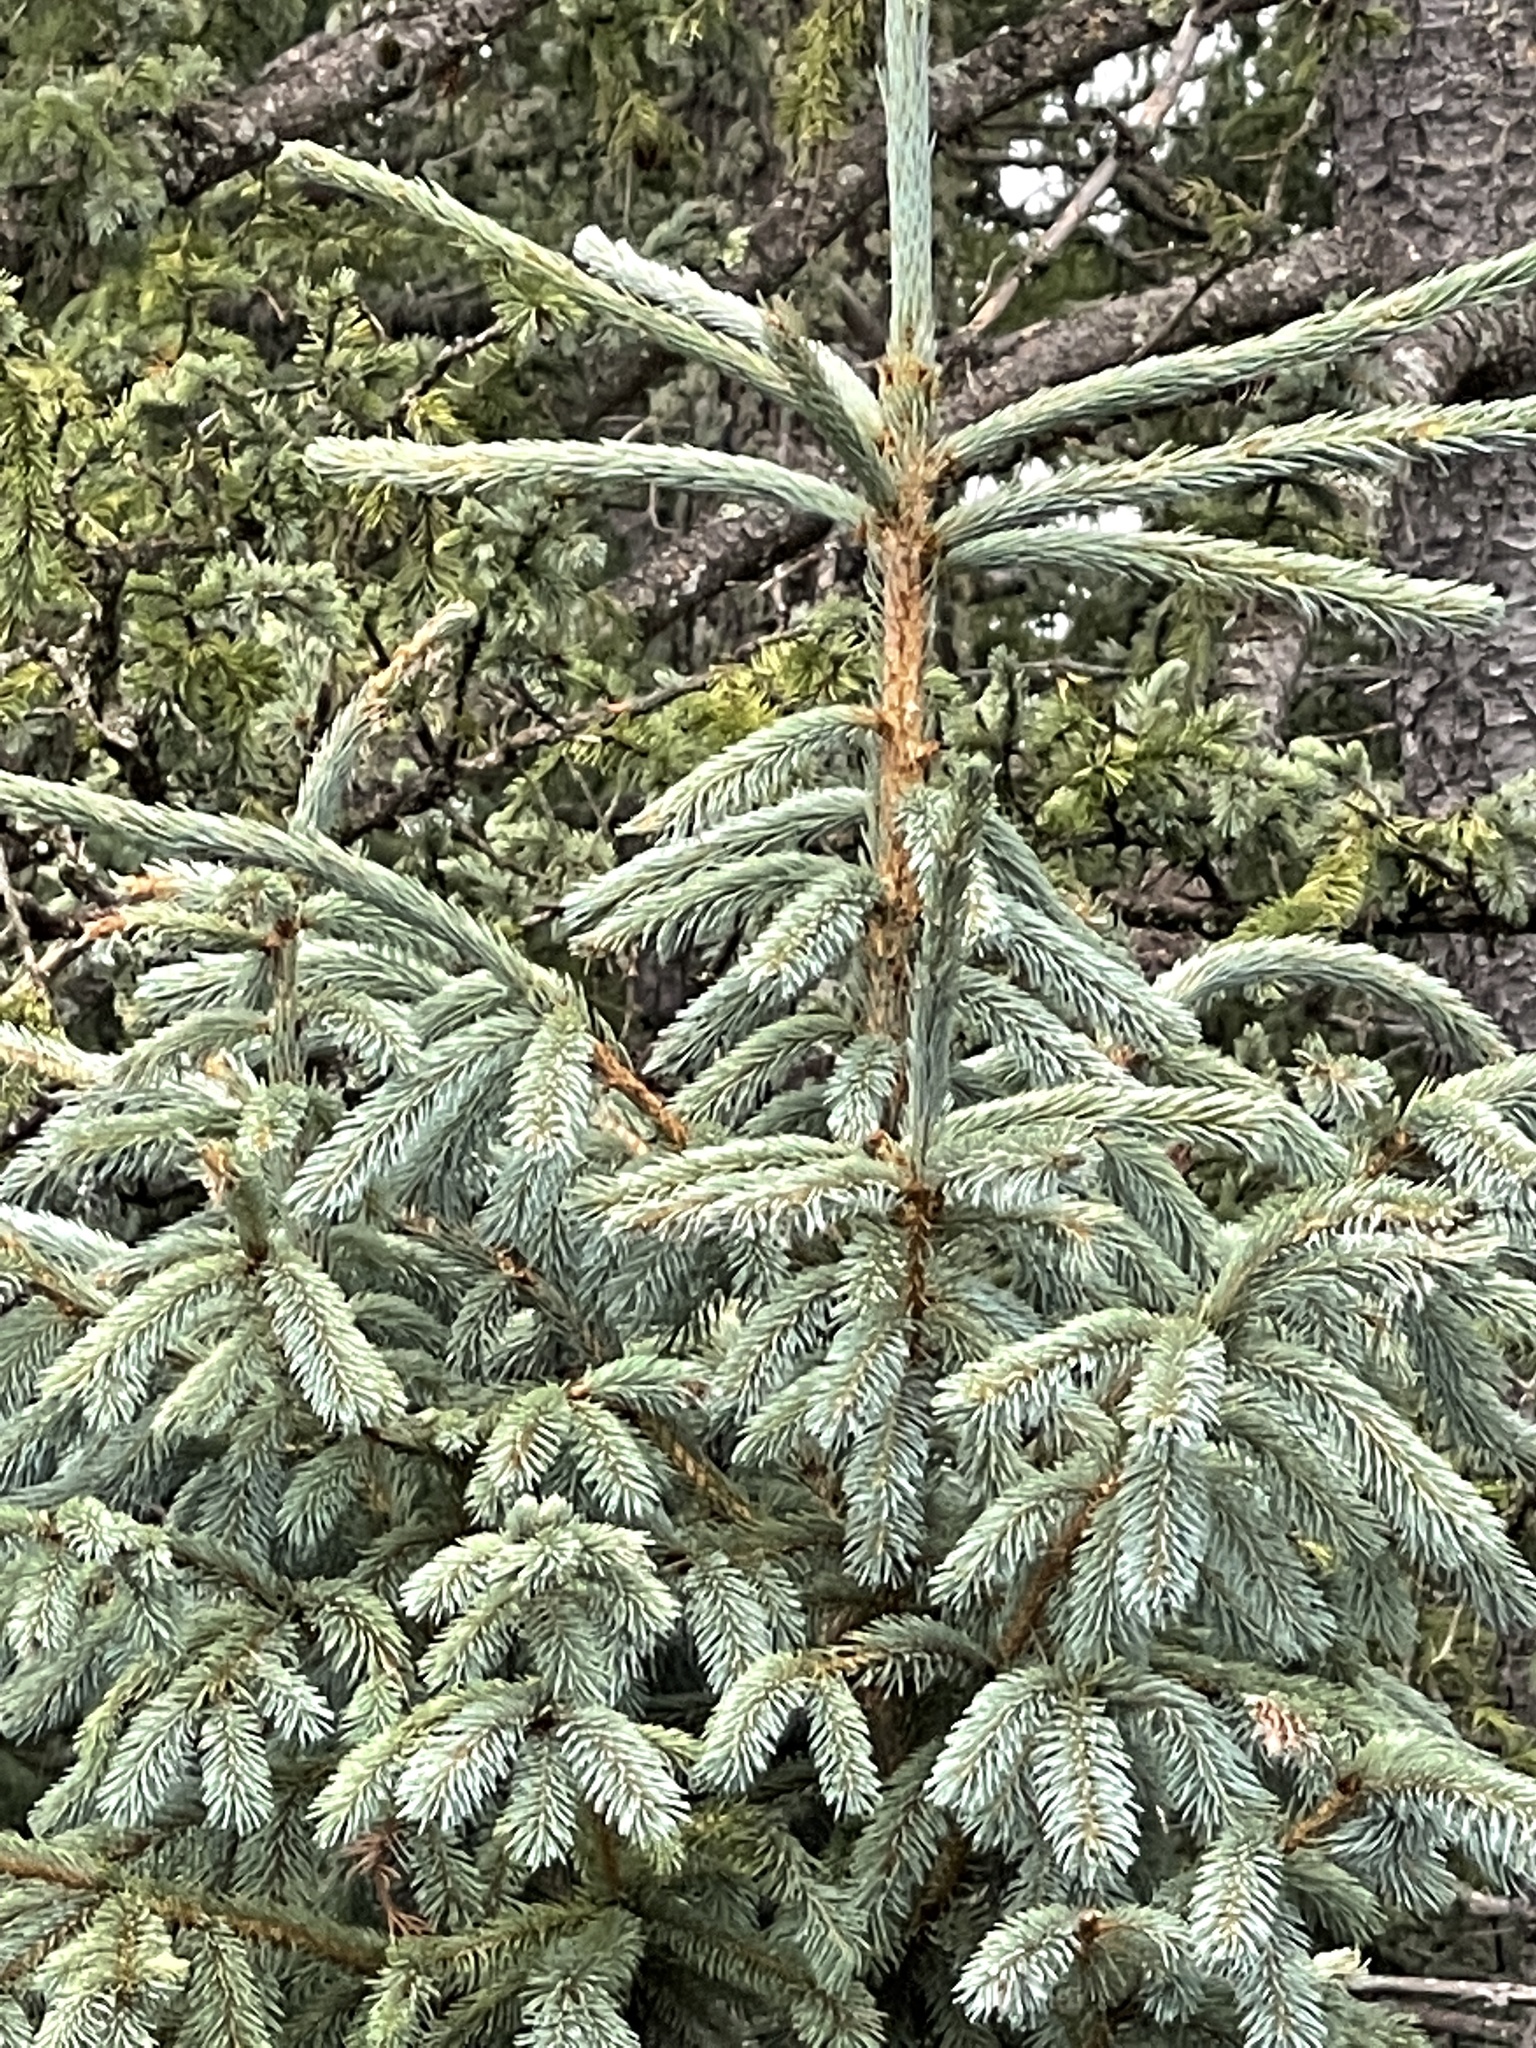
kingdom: Plantae
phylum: Tracheophyta
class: Pinopsida
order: Pinales
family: Pinaceae
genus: Picea
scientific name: Picea engelmannii
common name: Engelmann spruce
